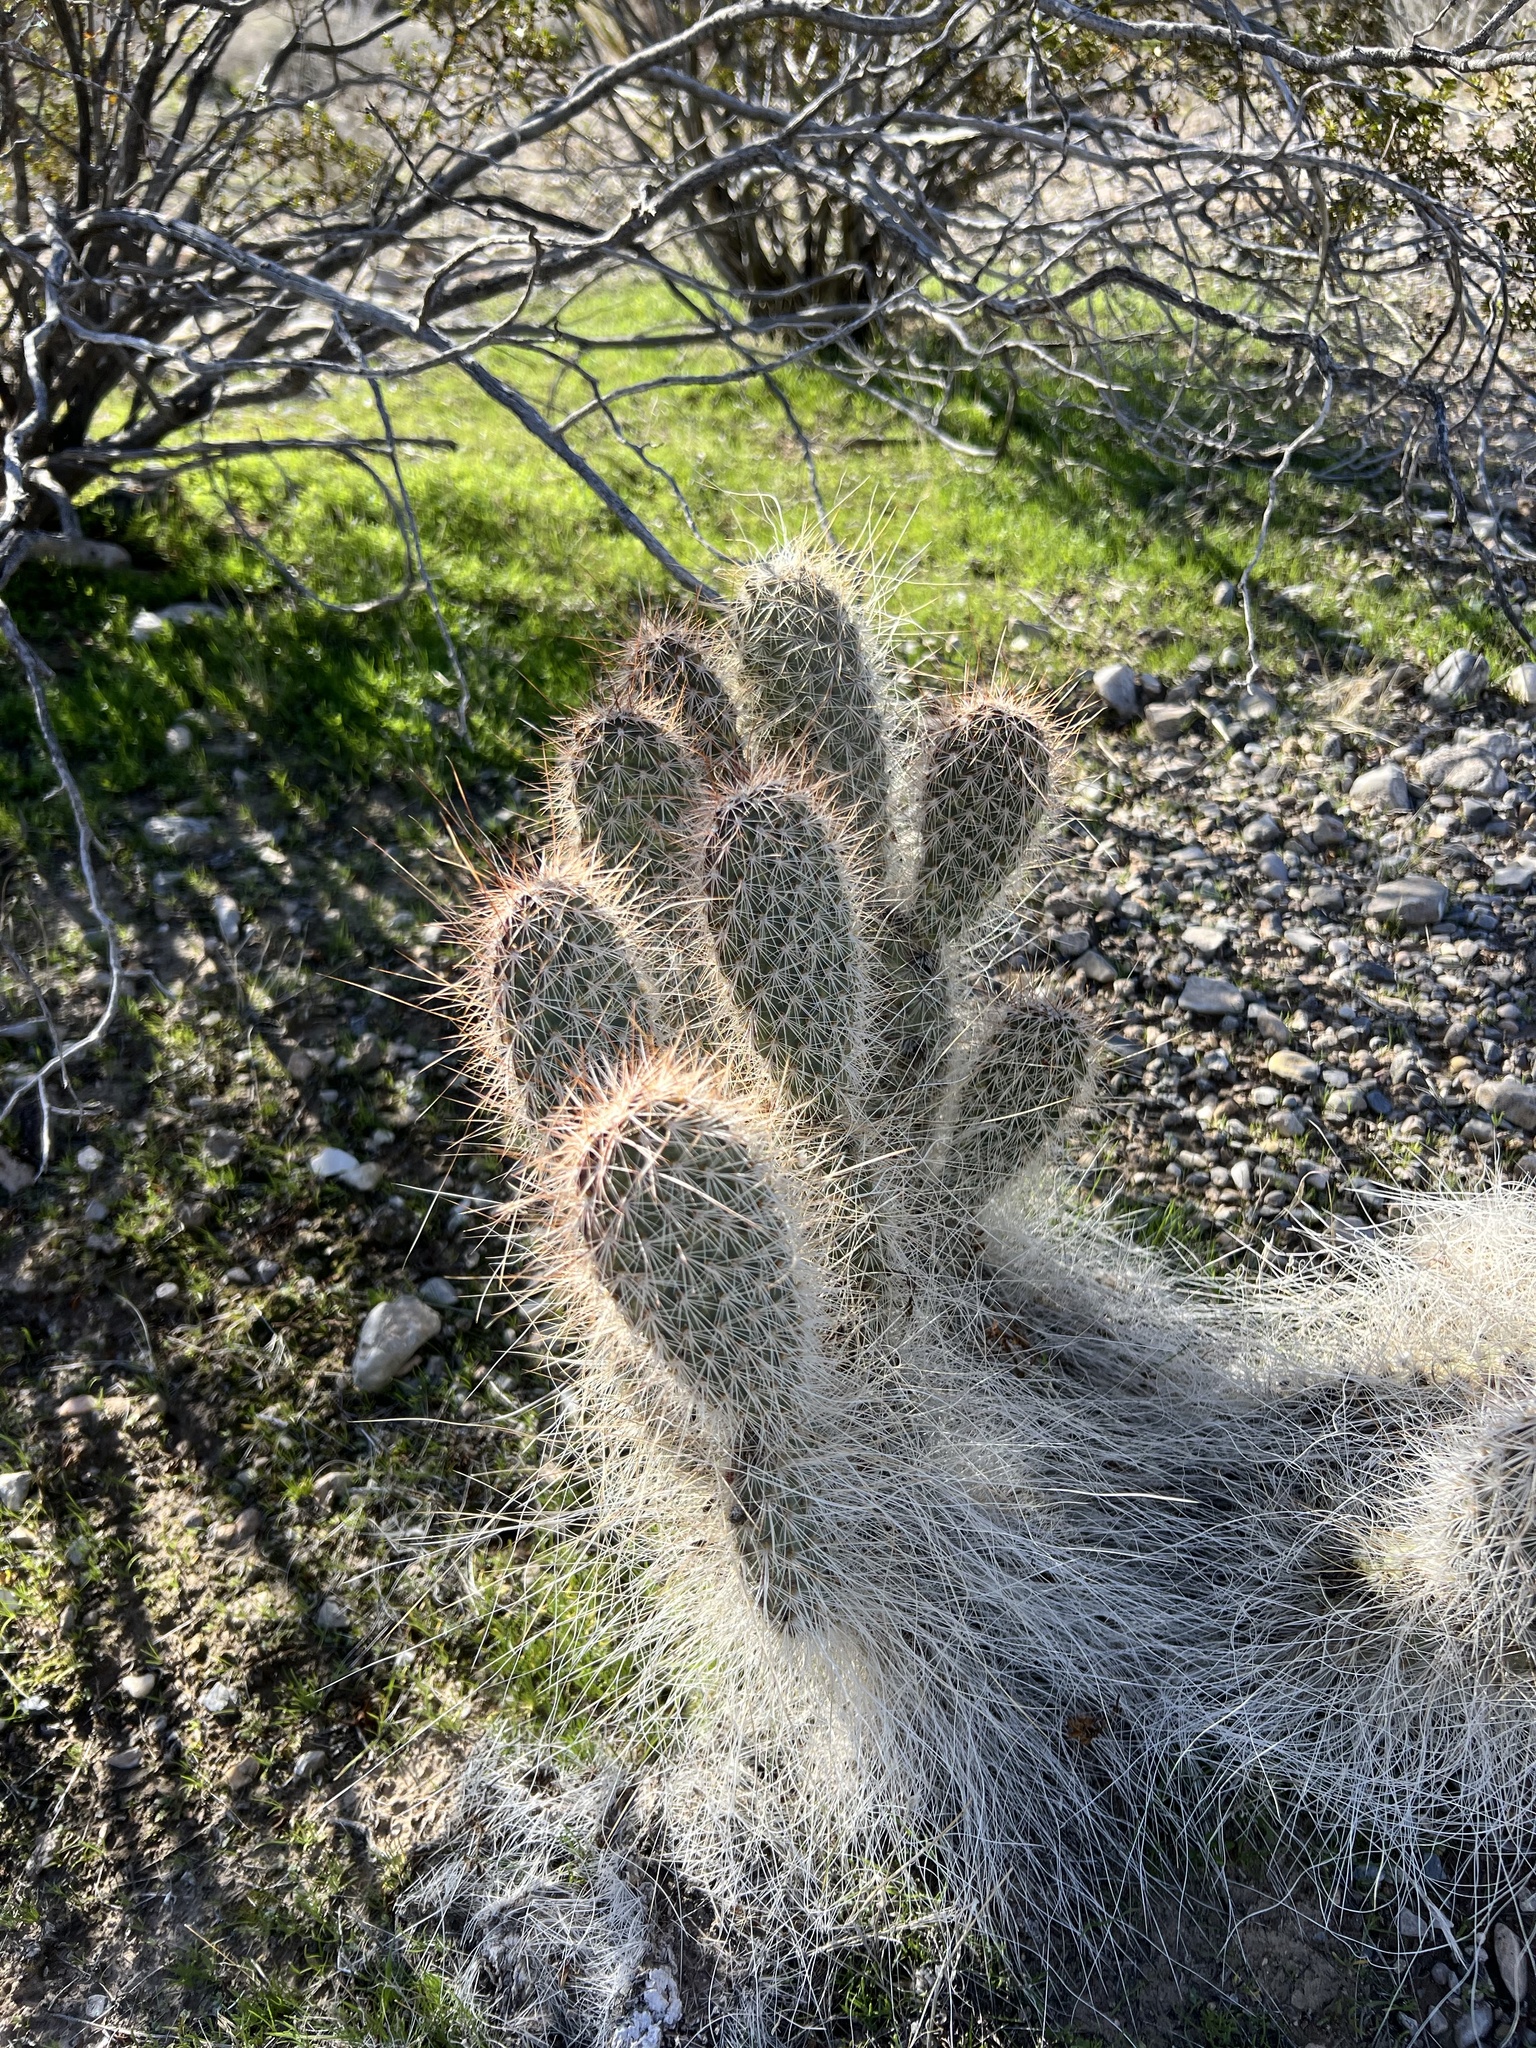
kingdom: Plantae
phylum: Tracheophyta
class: Magnoliopsida
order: Caryophyllales
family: Cactaceae
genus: Opuntia
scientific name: Opuntia polyacantha
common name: Plains prickly-pear
